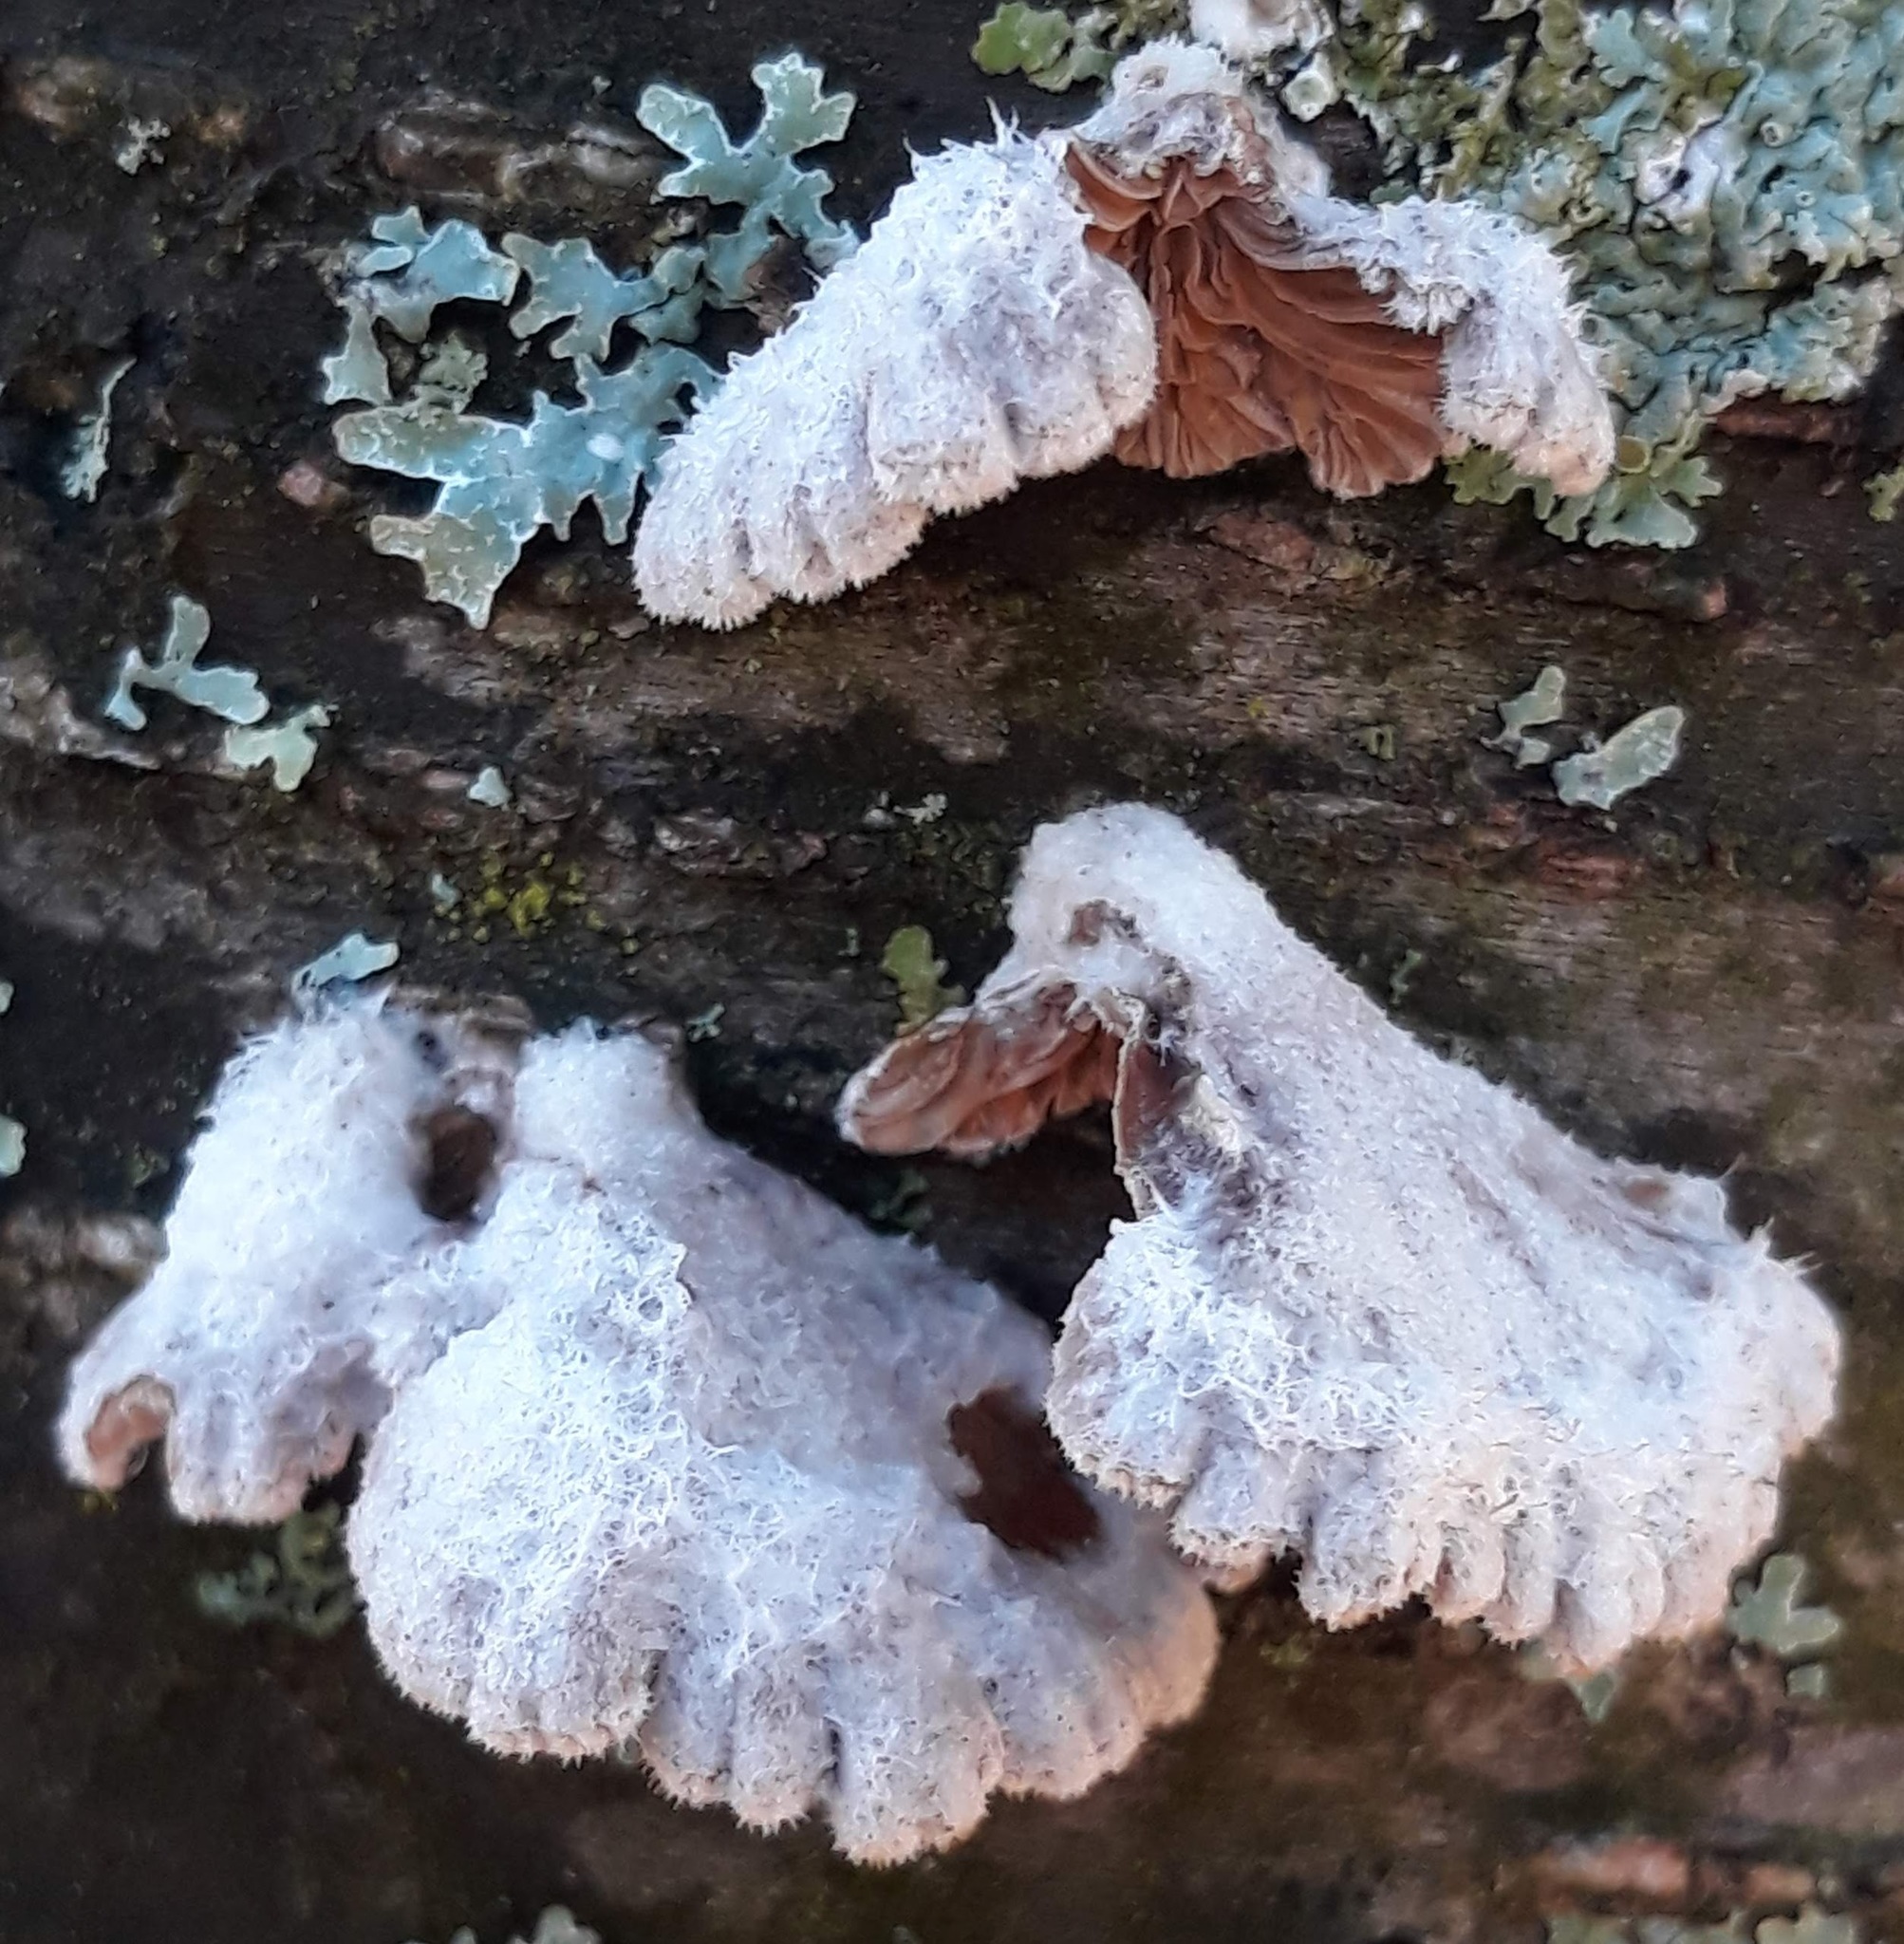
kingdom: Fungi
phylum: Basidiomycota
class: Agaricomycetes
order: Agaricales
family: Schizophyllaceae
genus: Schizophyllum
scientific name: Schizophyllum commune
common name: Common porecrust
